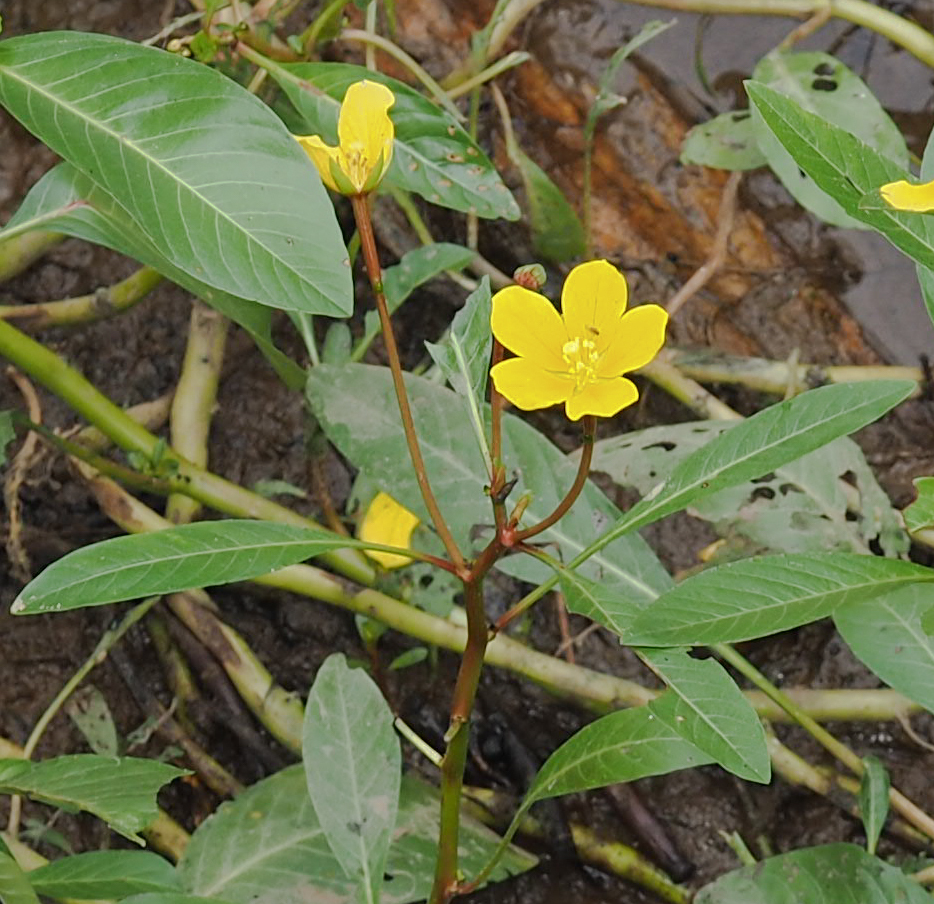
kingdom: Plantae
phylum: Tracheophyta
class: Magnoliopsida
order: Myrtales
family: Onagraceae
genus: Ludwigia
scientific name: Ludwigia peploides
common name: Floating primrose-willow
